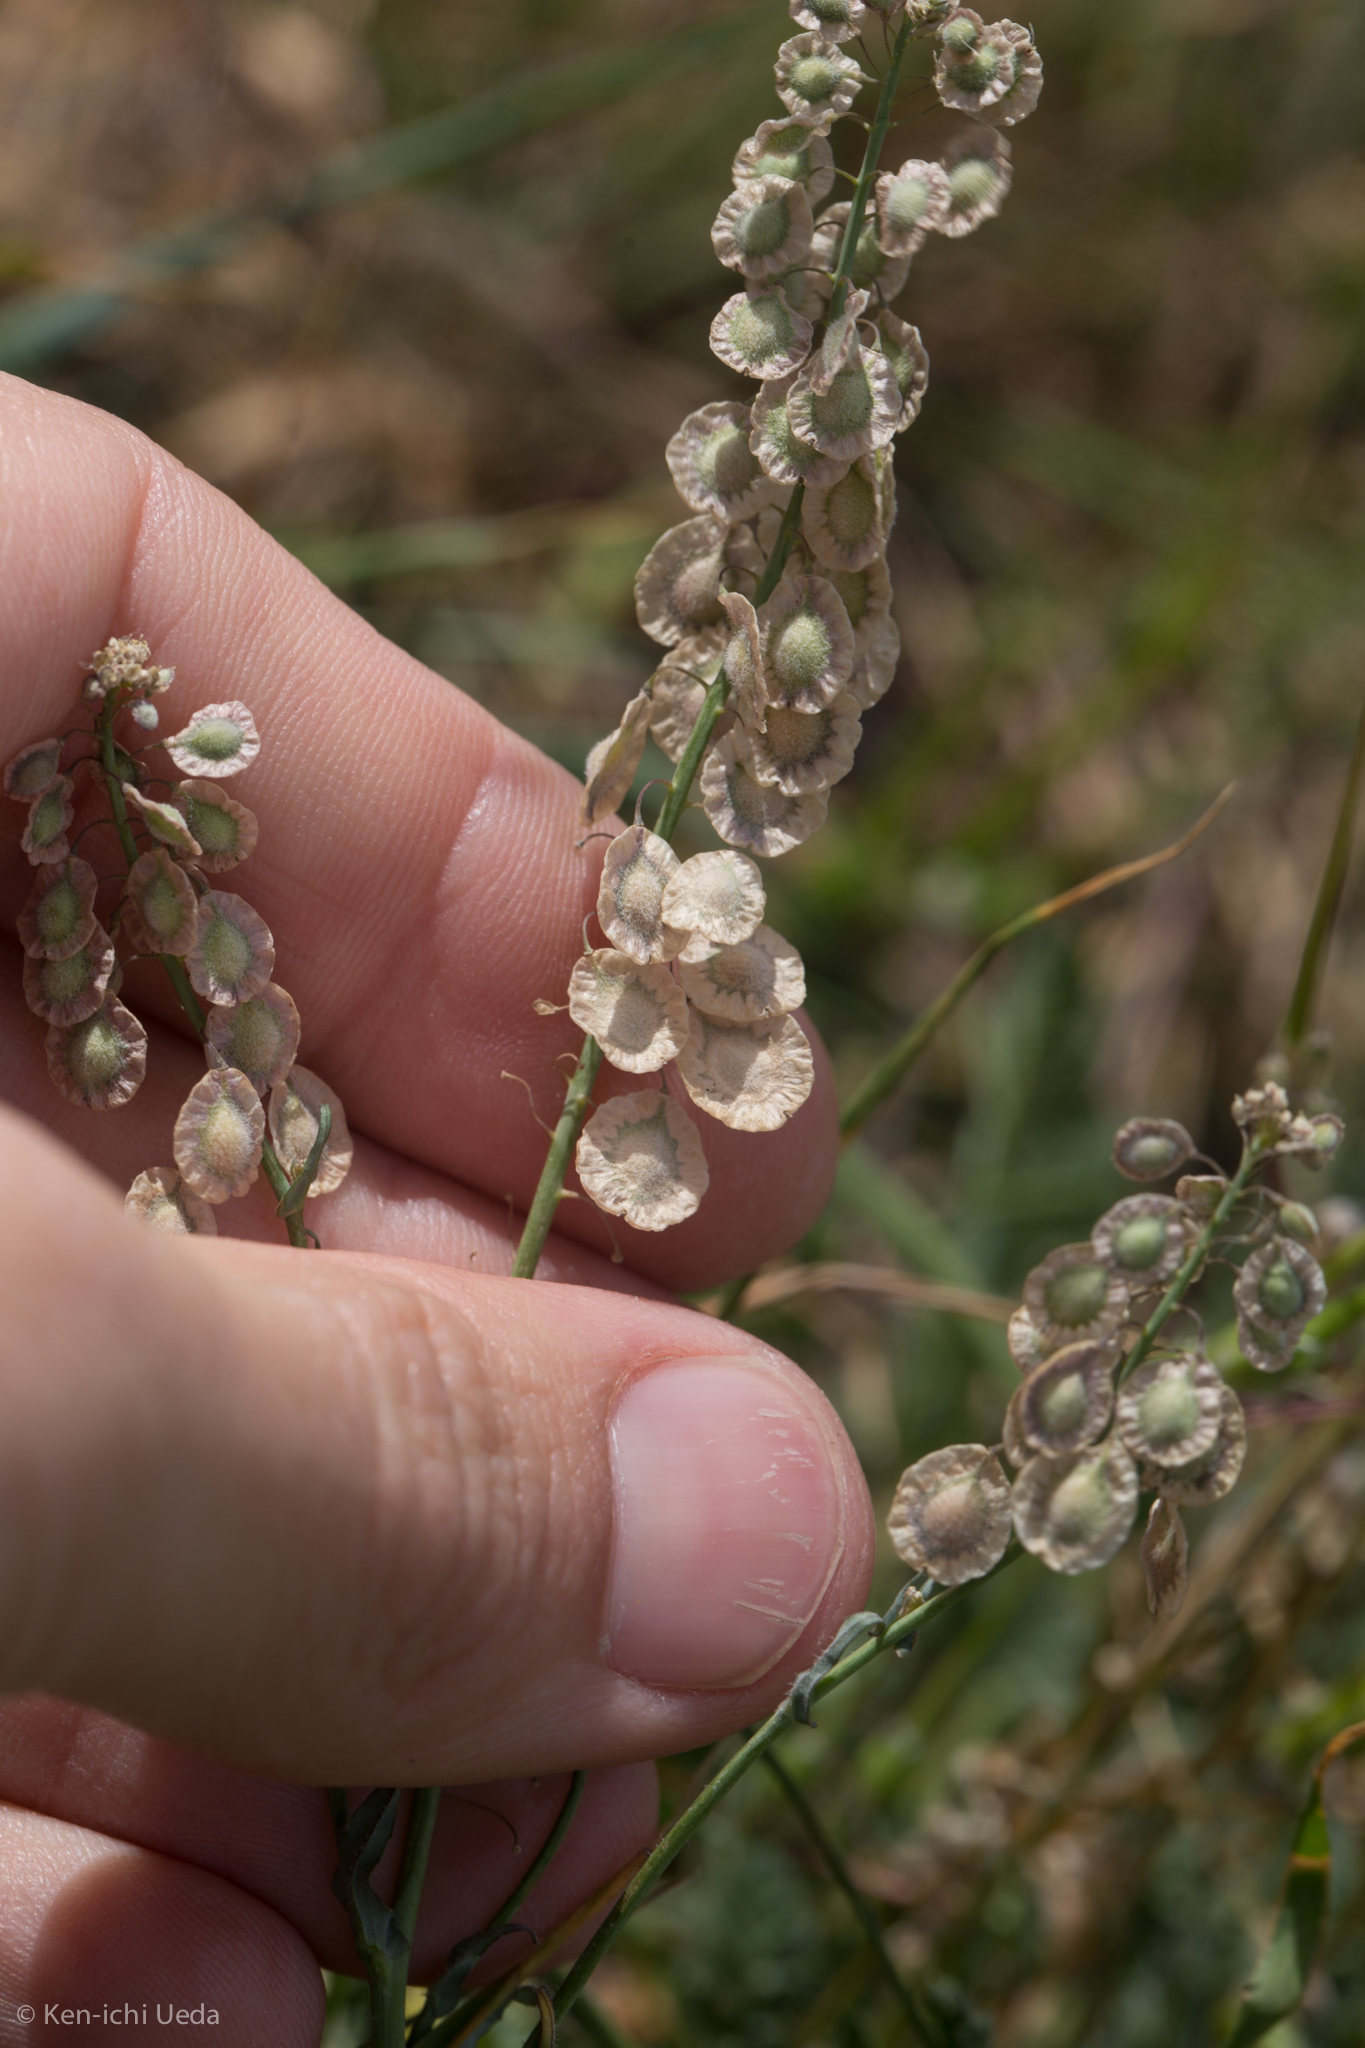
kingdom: Plantae
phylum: Tracheophyta
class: Magnoliopsida
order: Brassicales
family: Brassicaceae
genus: Thysanocarpus
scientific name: Thysanocarpus curvipes
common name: Sand fringepod
